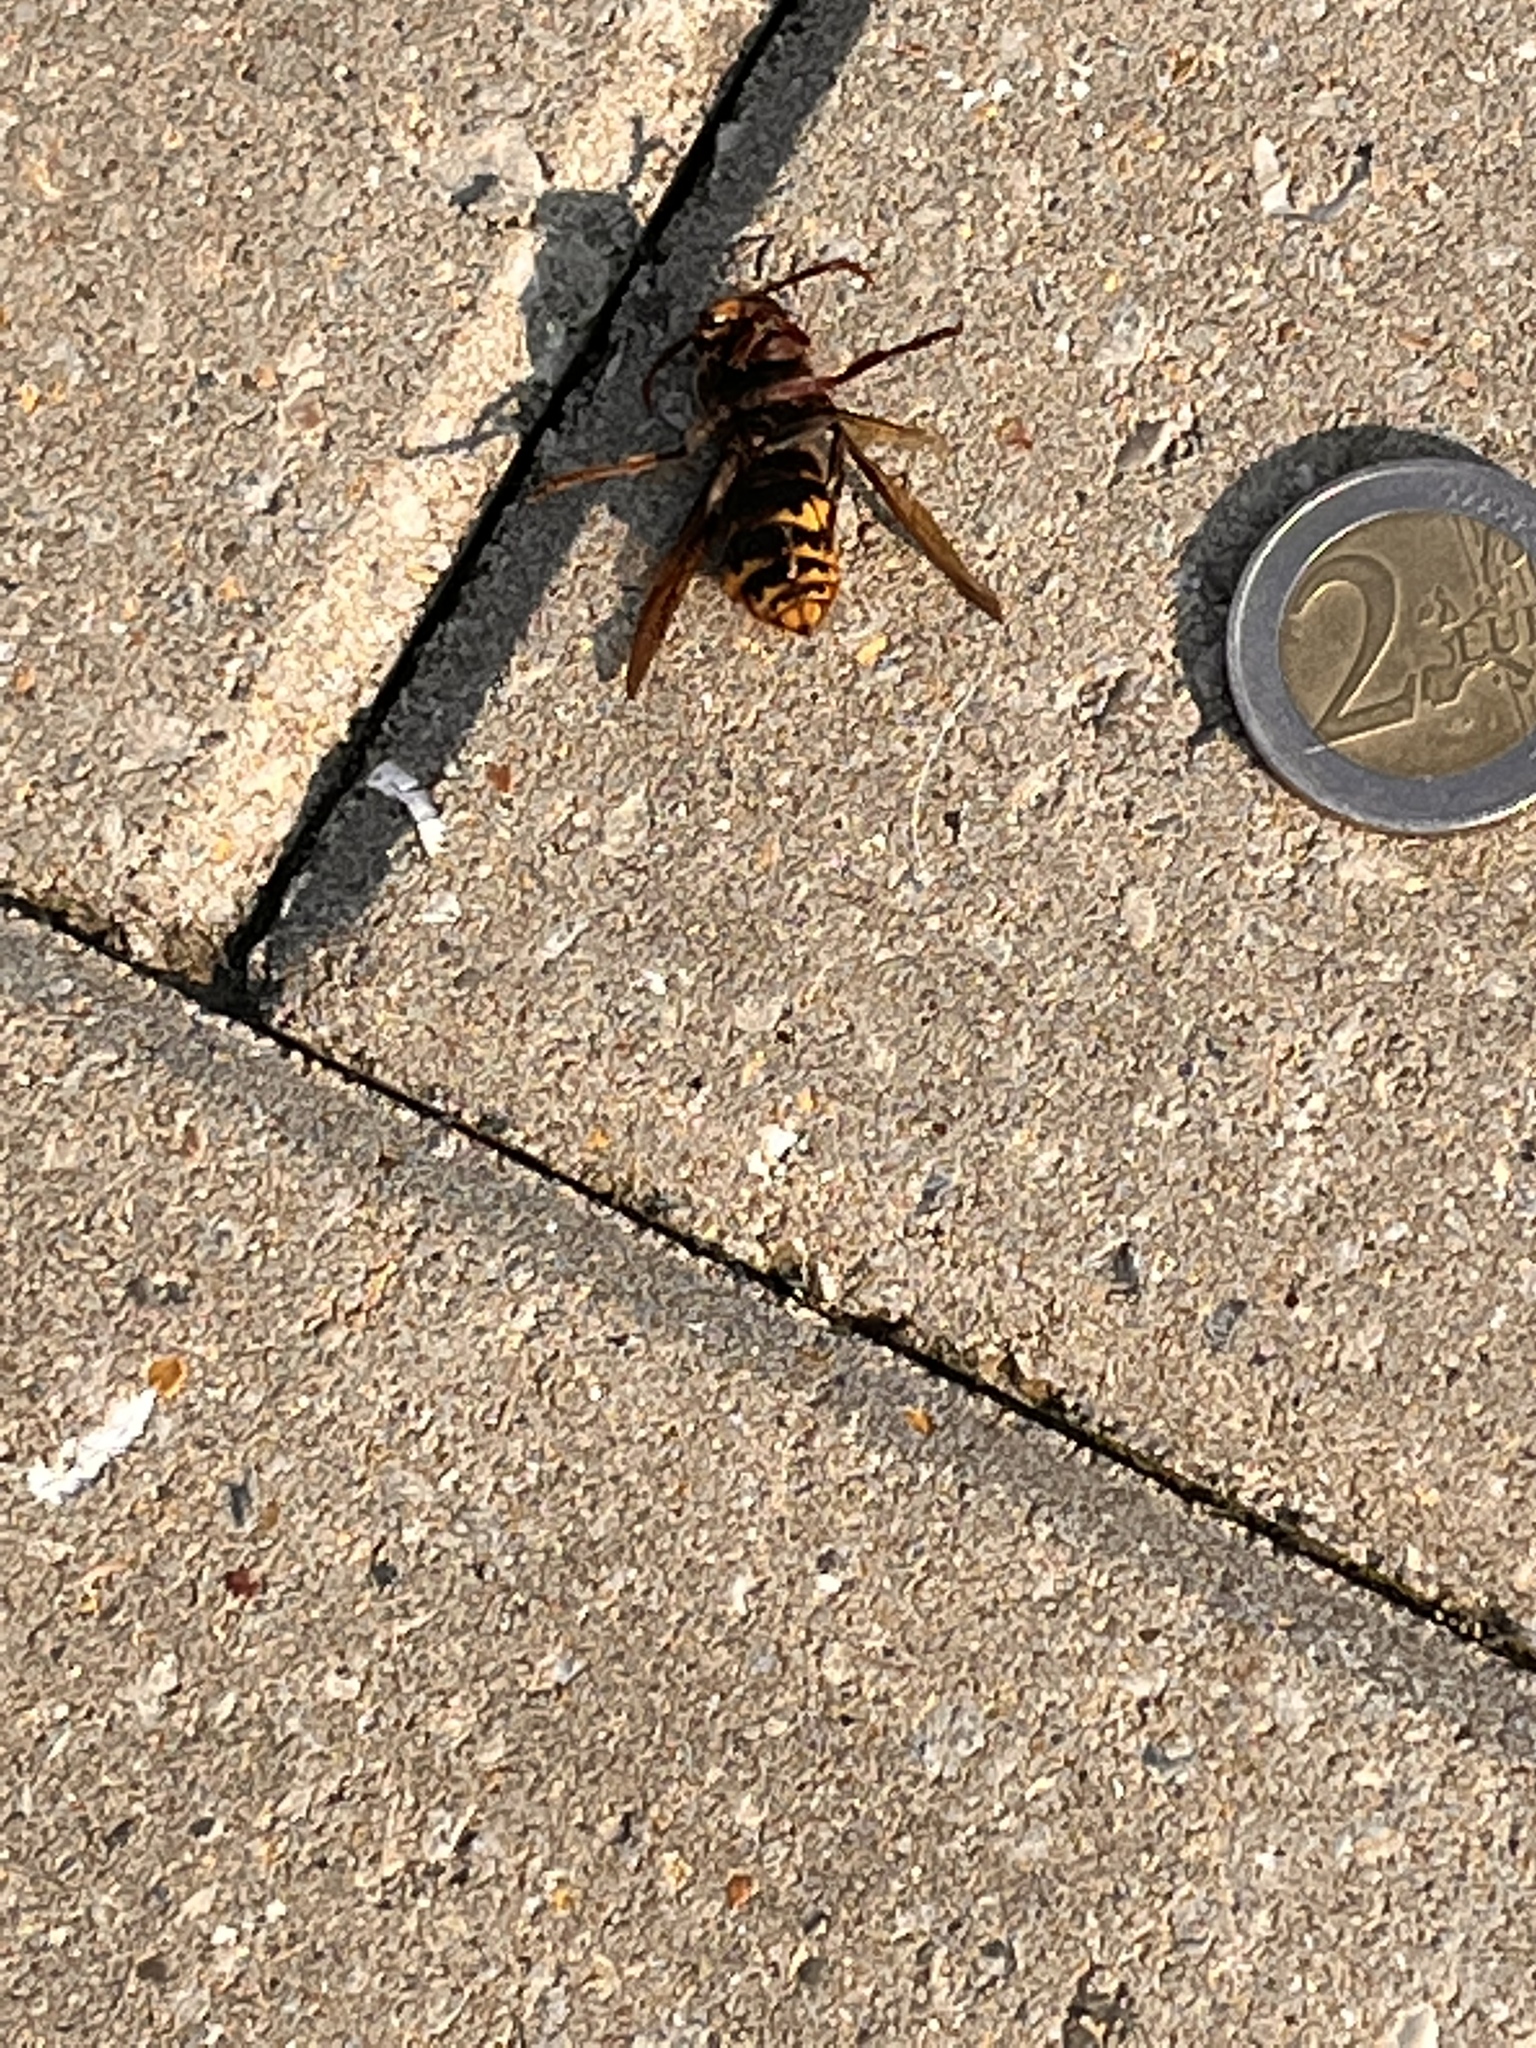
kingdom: Animalia
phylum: Arthropoda
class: Insecta
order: Hymenoptera
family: Vespidae
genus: Vespa
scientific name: Vespa crabro
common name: Hornet
